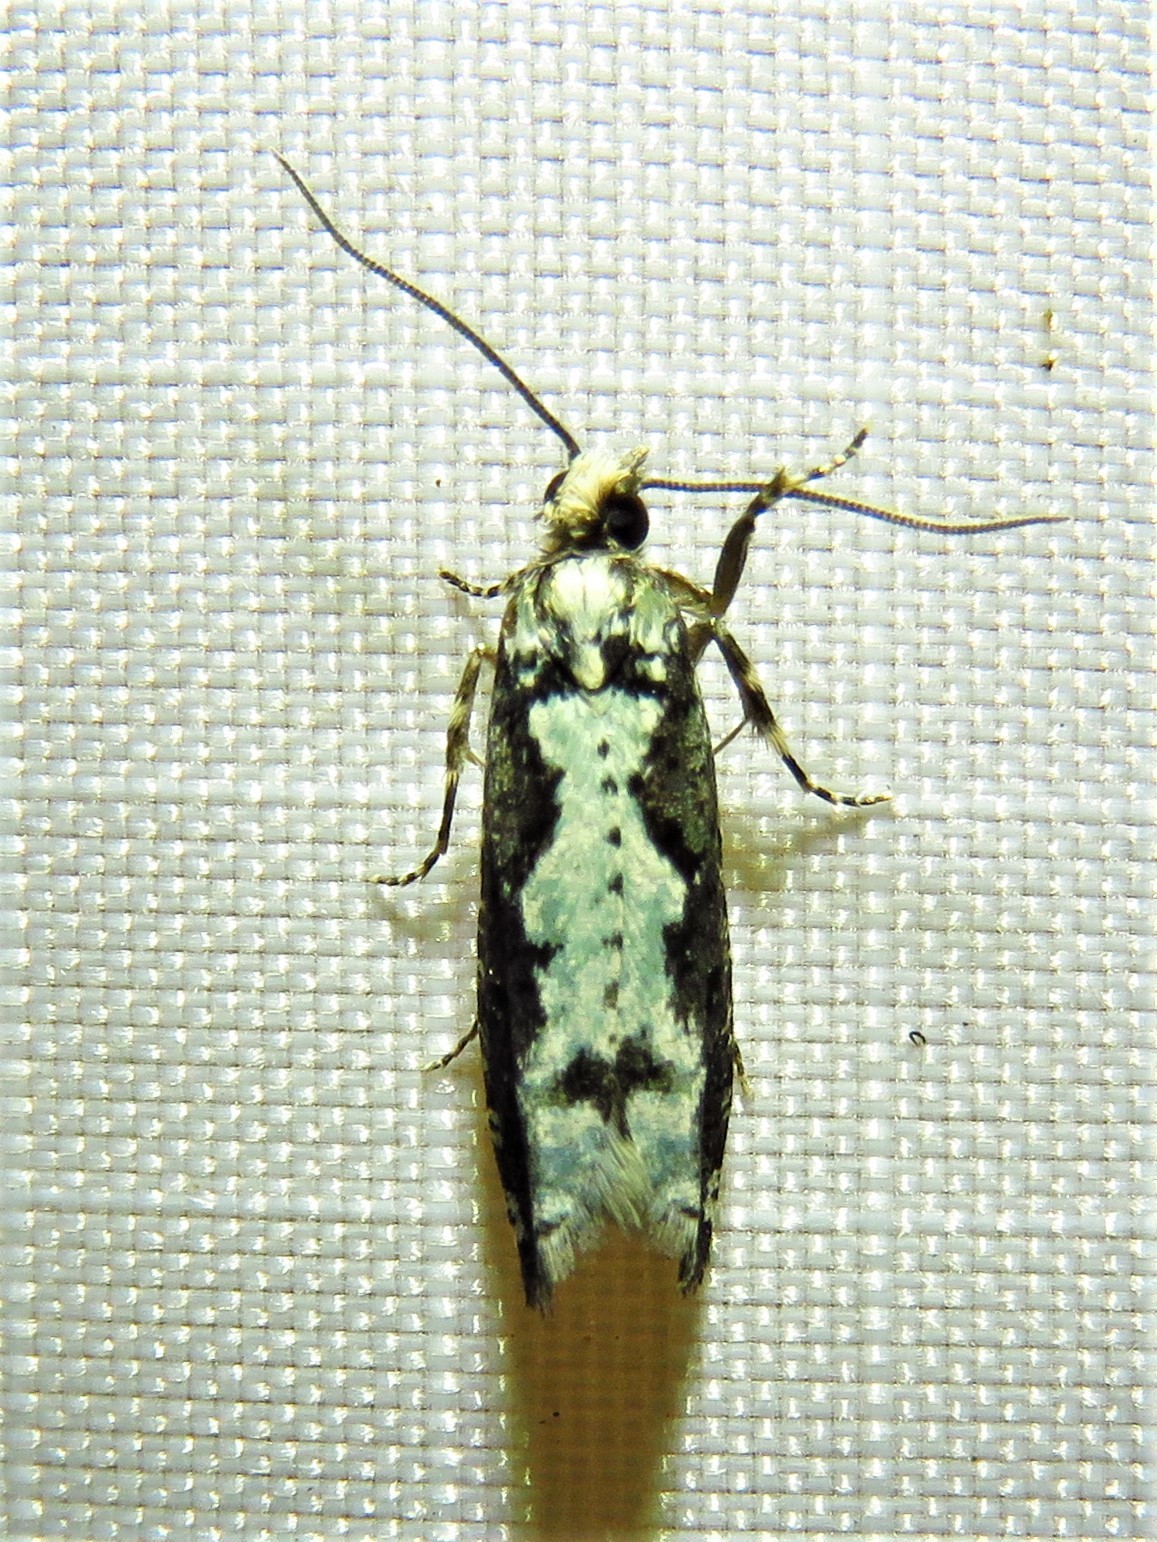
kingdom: Animalia
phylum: Arthropoda
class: Insecta
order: Lepidoptera
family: Tortricidae
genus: Chimoptesis
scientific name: Chimoptesis pennsylvaniana
